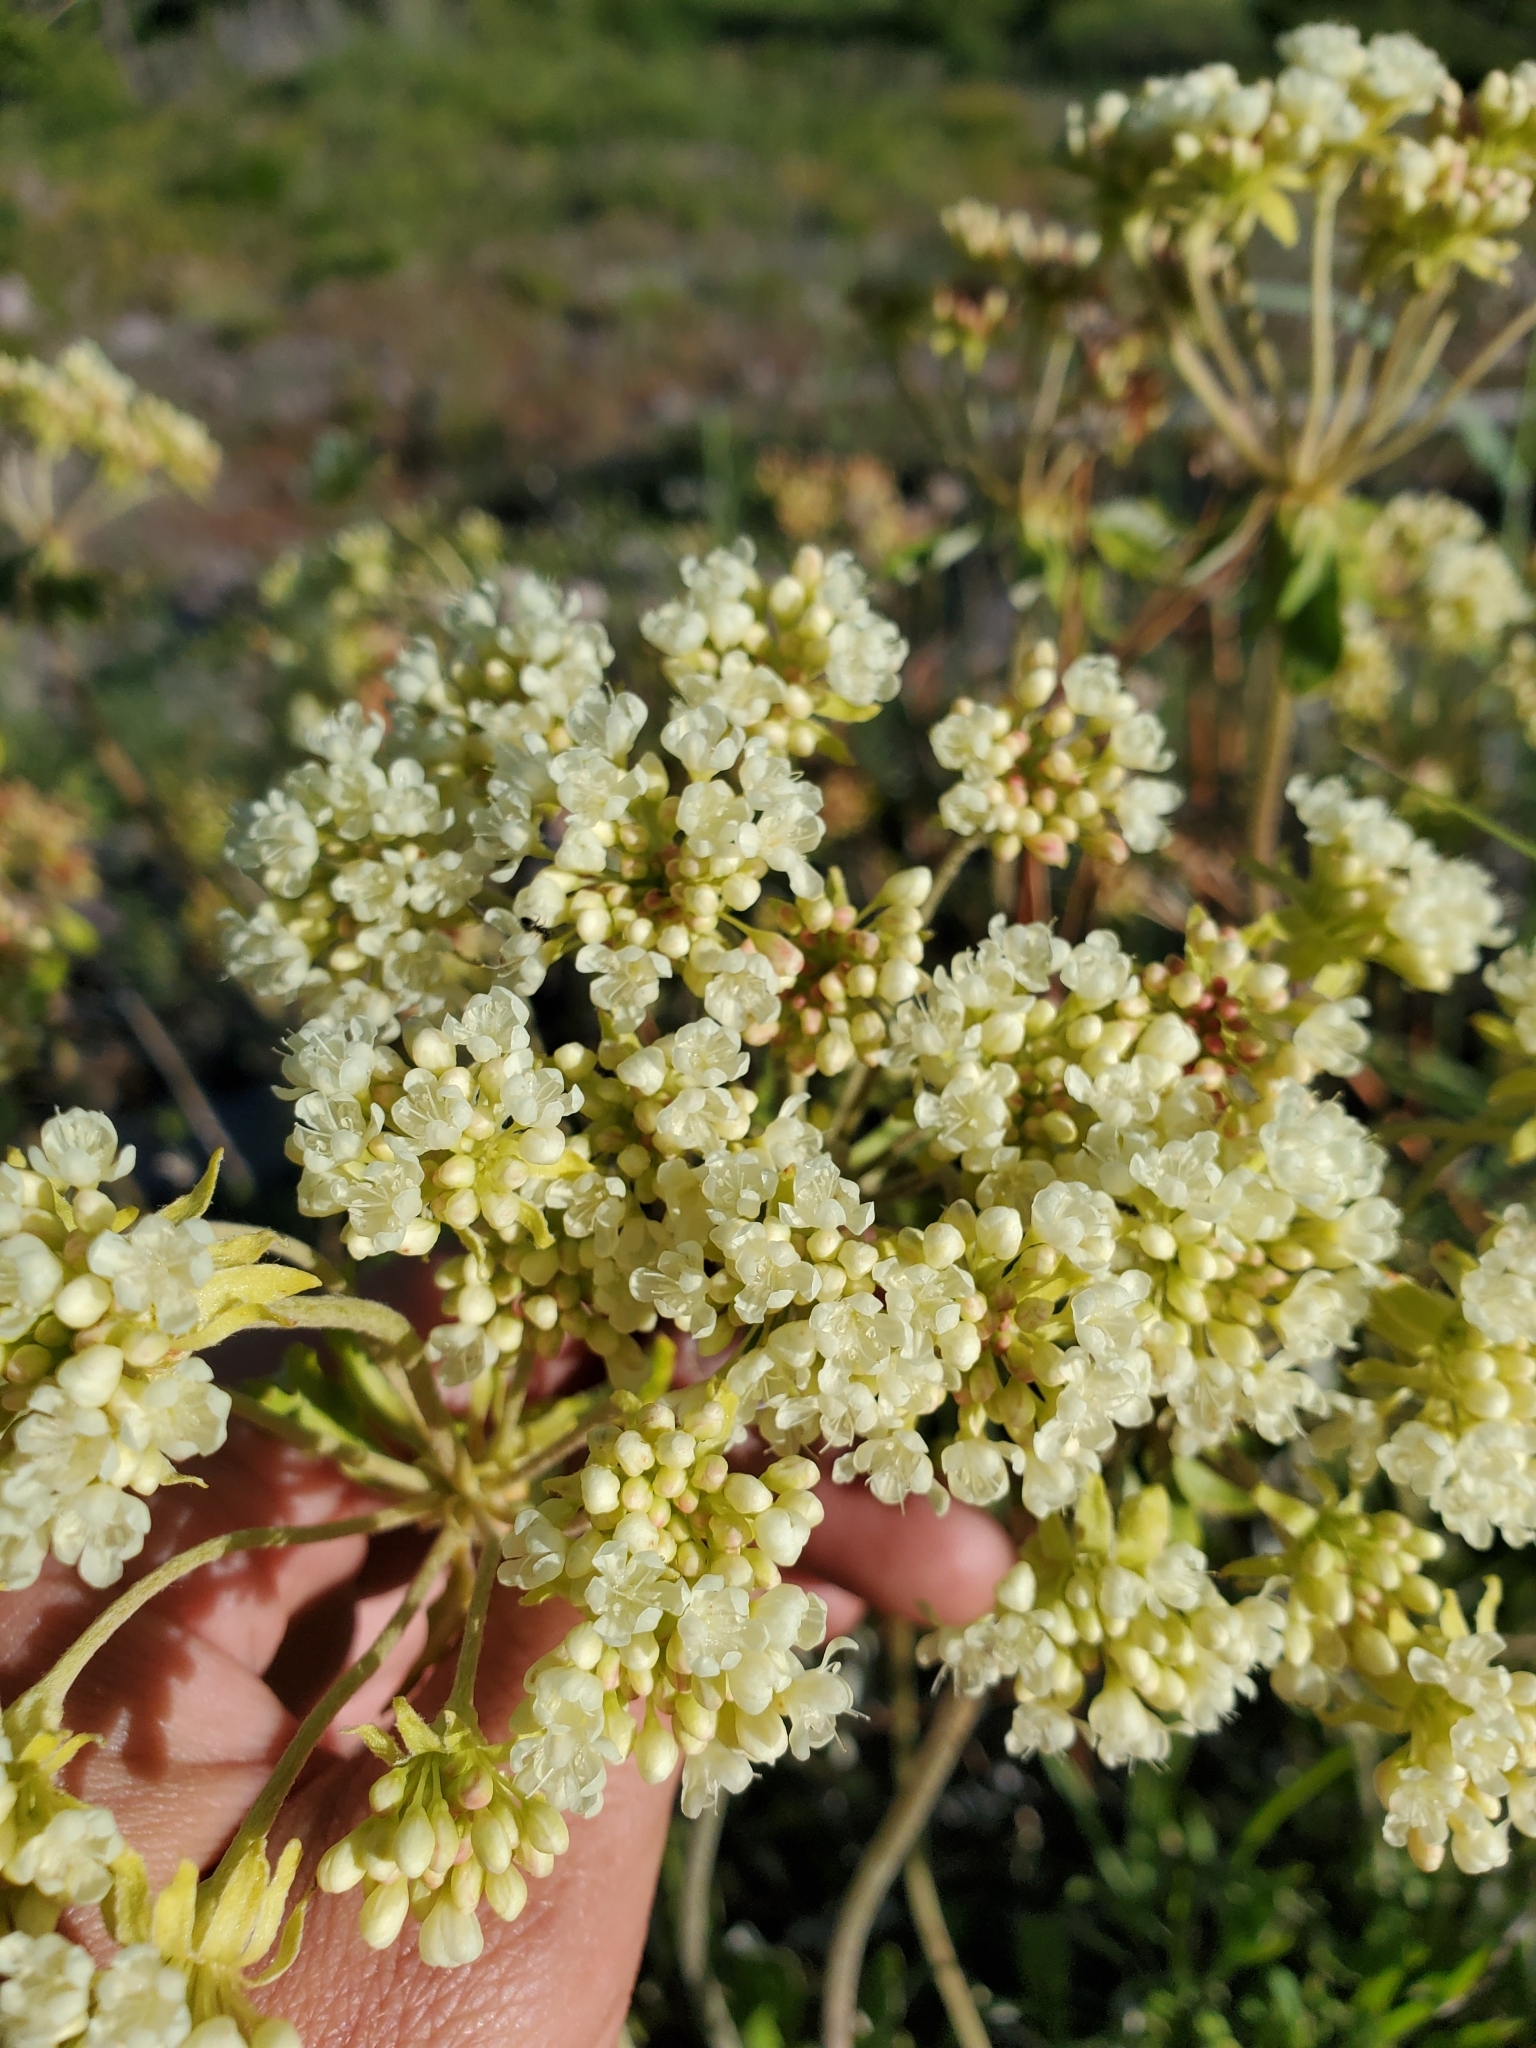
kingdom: Plantae
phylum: Tracheophyta
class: Magnoliopsida
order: Caryophyllales
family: Polygonaceae
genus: Eriogonum
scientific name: Eriogonum heracleoides
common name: Wyeth's buckwheat
